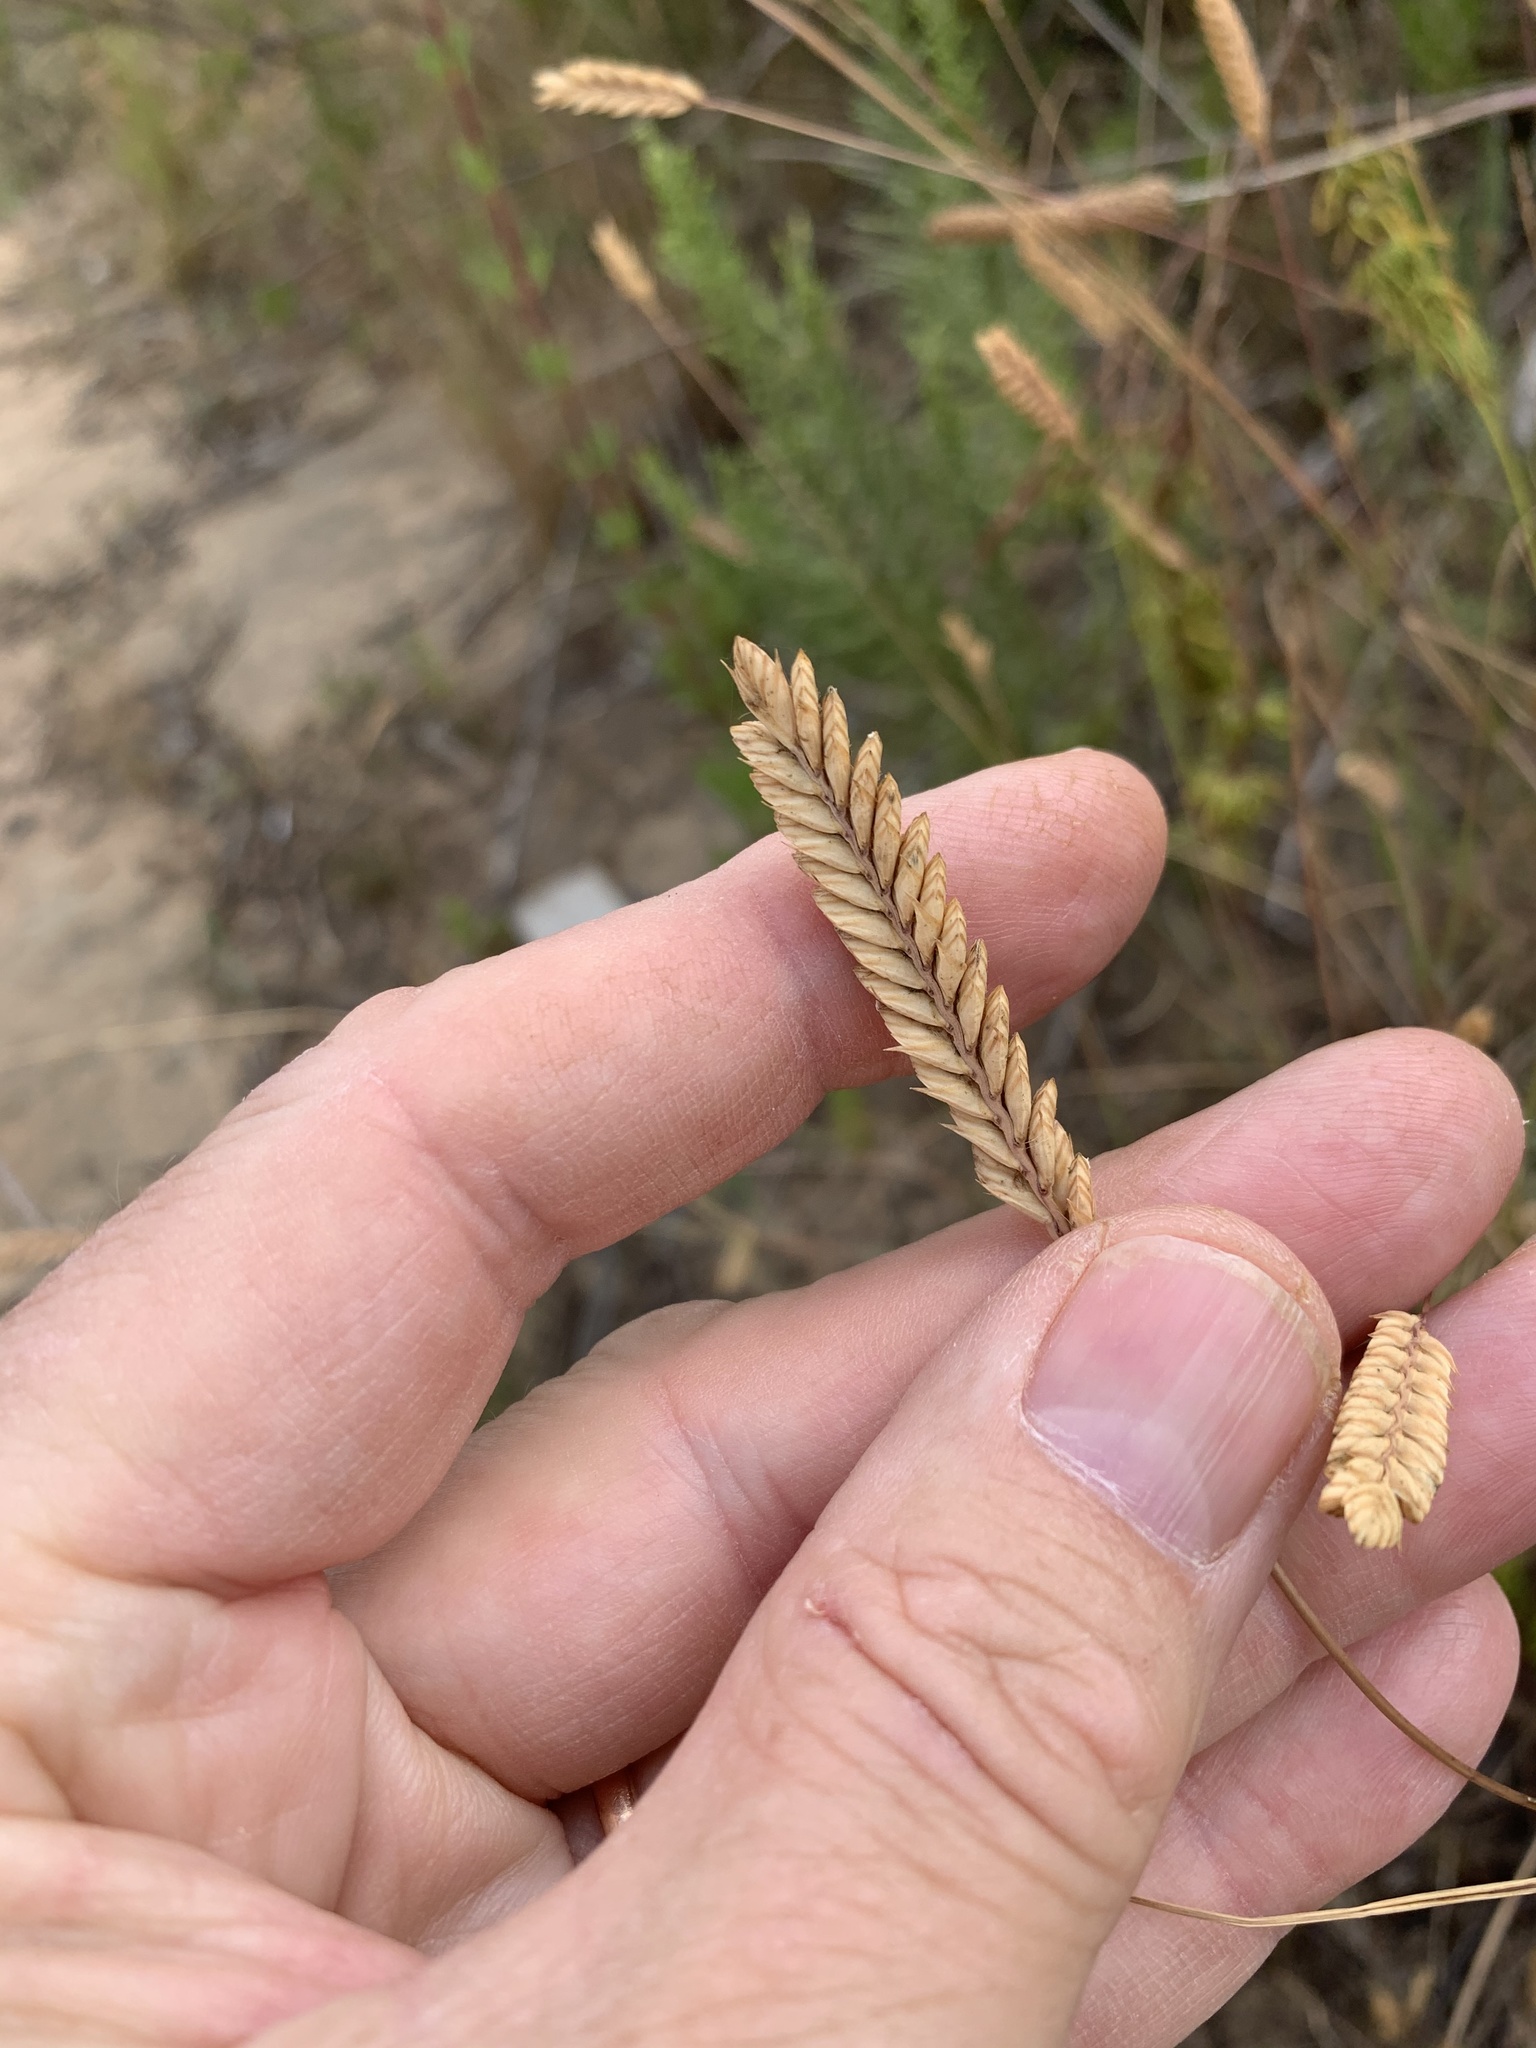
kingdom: Plantae
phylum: Tracheophyta
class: Liliopsida
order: Poales
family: Poaceae
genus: Tribolium
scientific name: Tribolium uniolae
